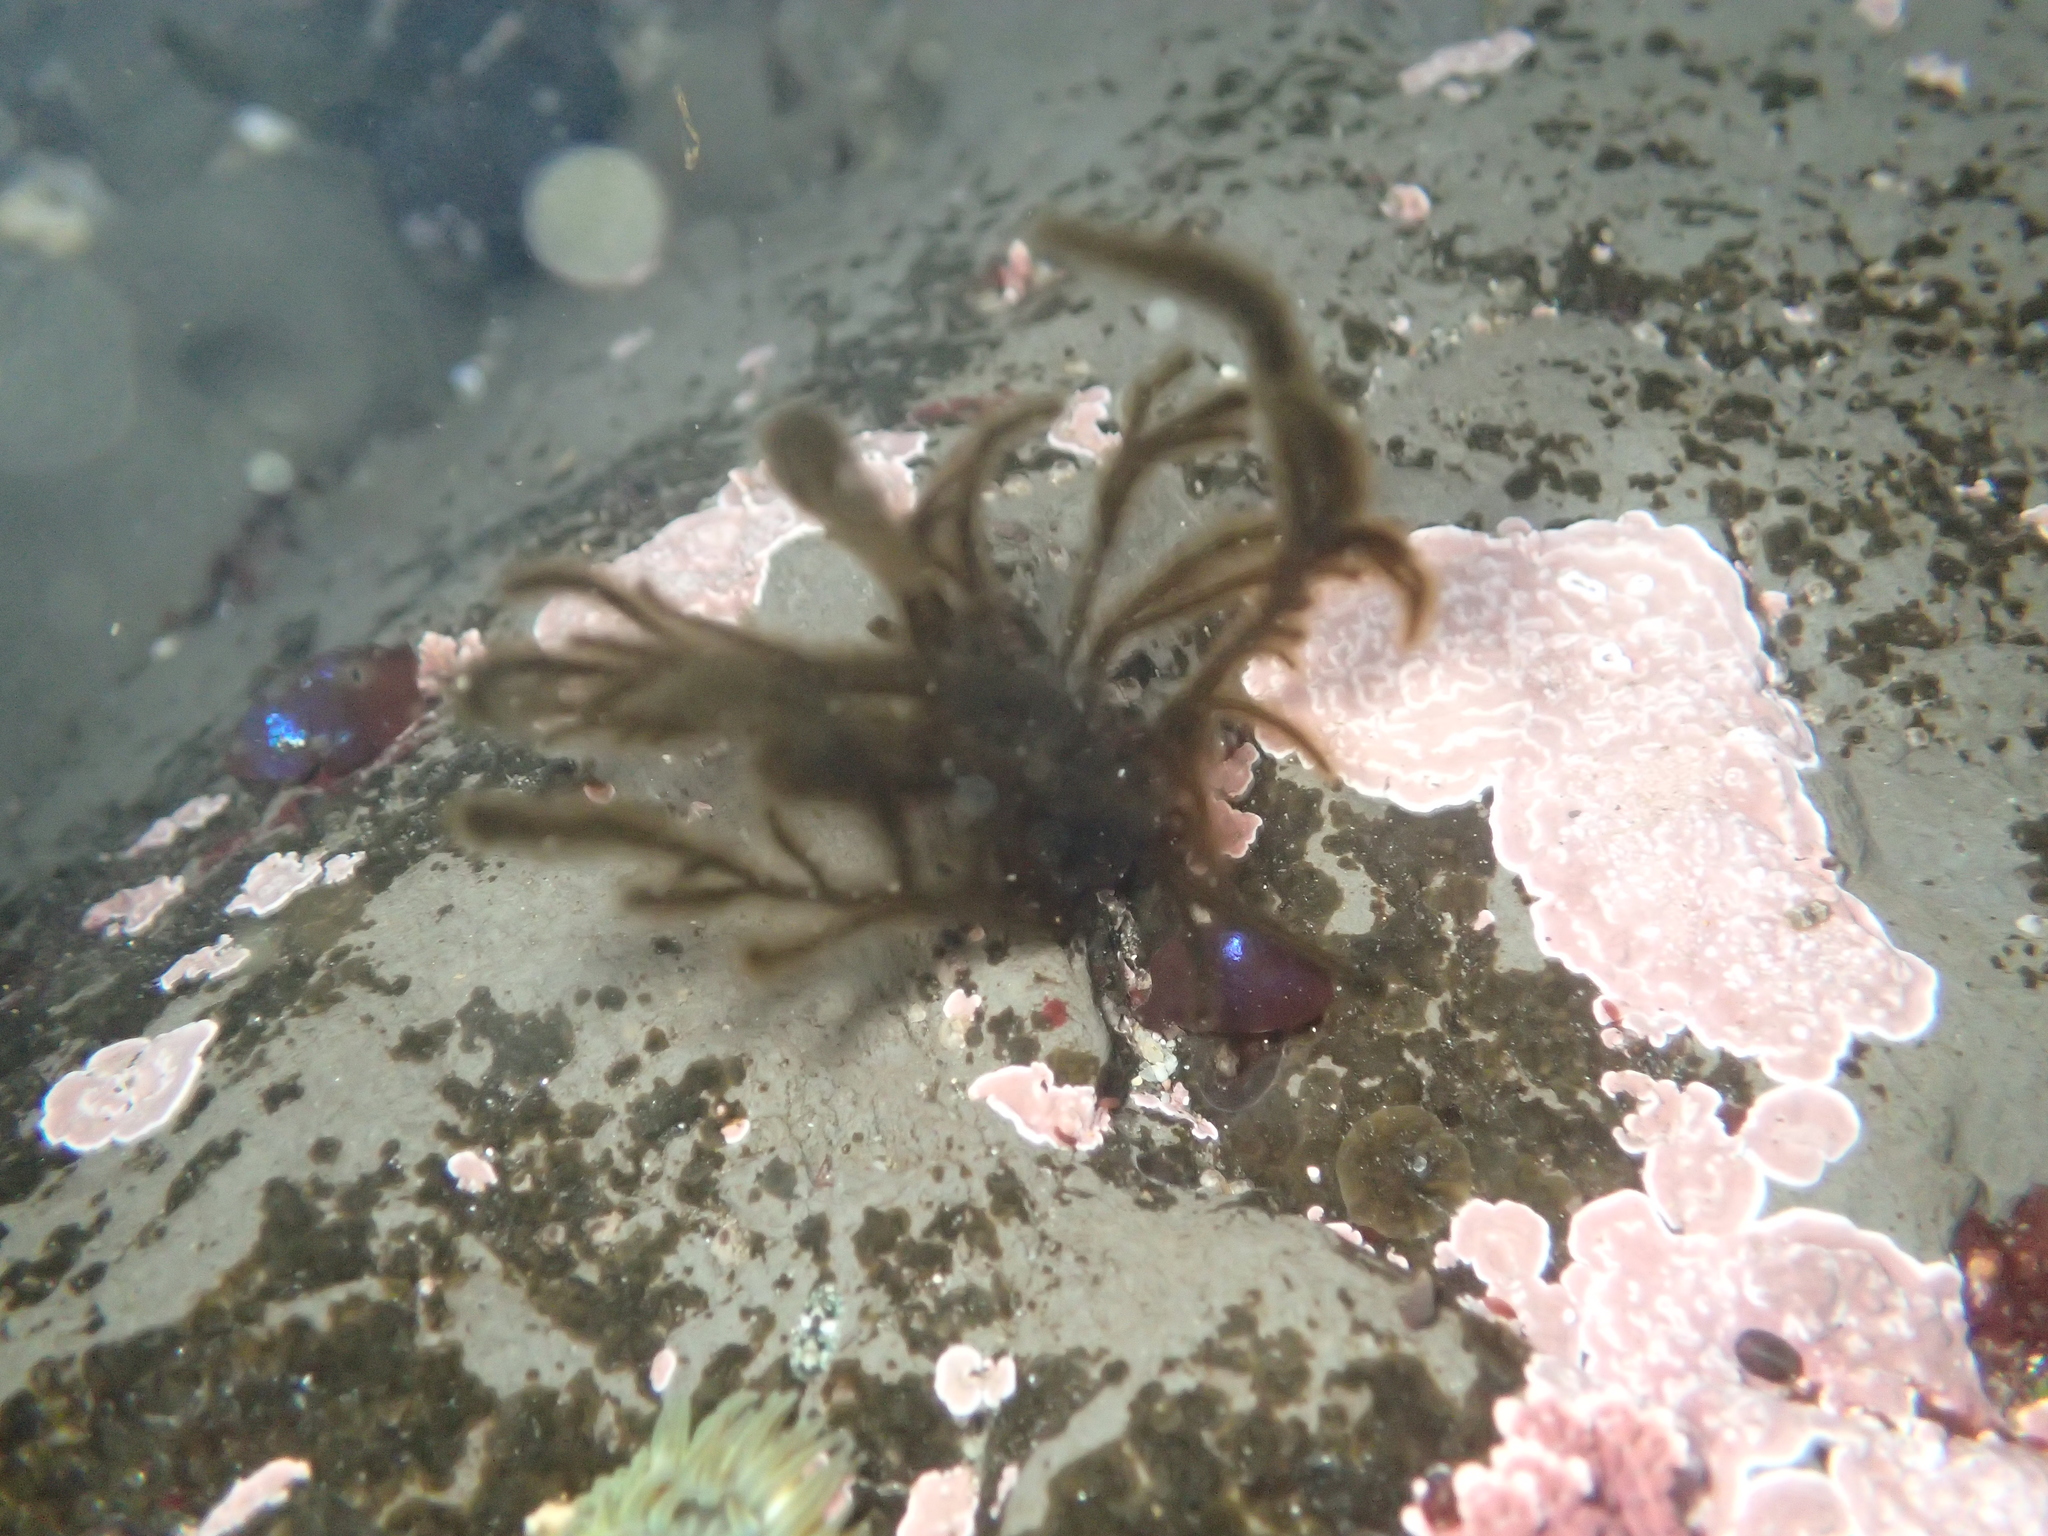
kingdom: Chromista
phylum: Ochrophyta
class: Phaeophyceae
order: Ectocarpales
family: Chordariaceae
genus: Haplogloia
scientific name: Haplogloia andersonii
